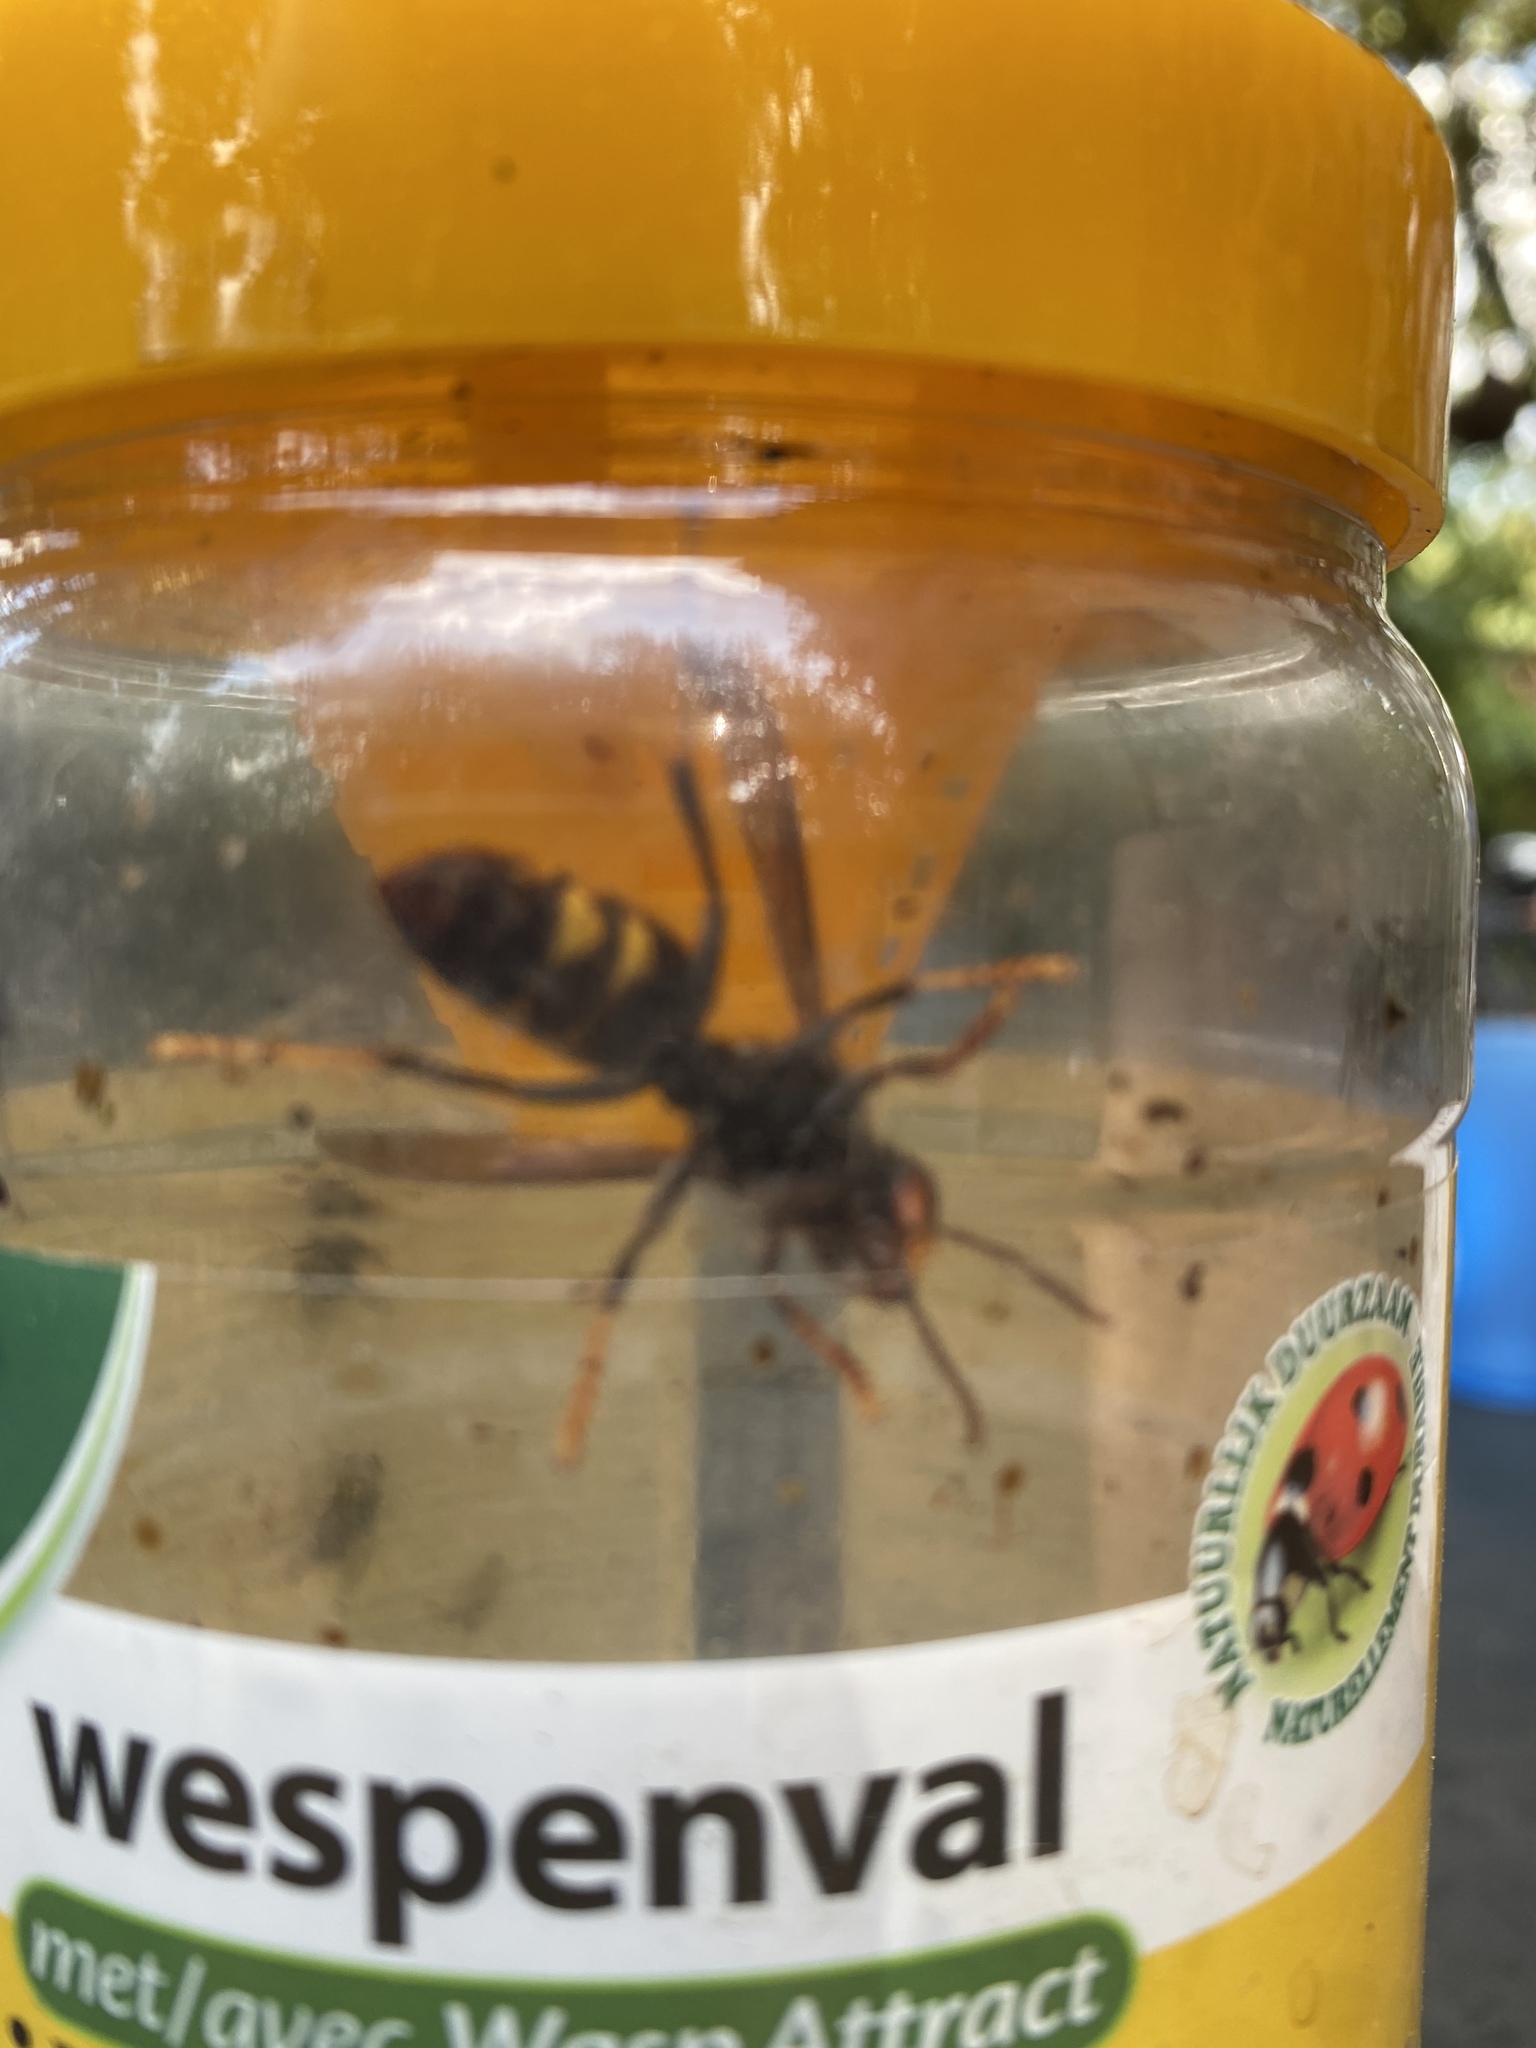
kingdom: Animalia
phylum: Arthropoda
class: Insecta
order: Hymenoptera
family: Vespidae
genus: Vespa
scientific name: Vespa velutina
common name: Asian hornet
